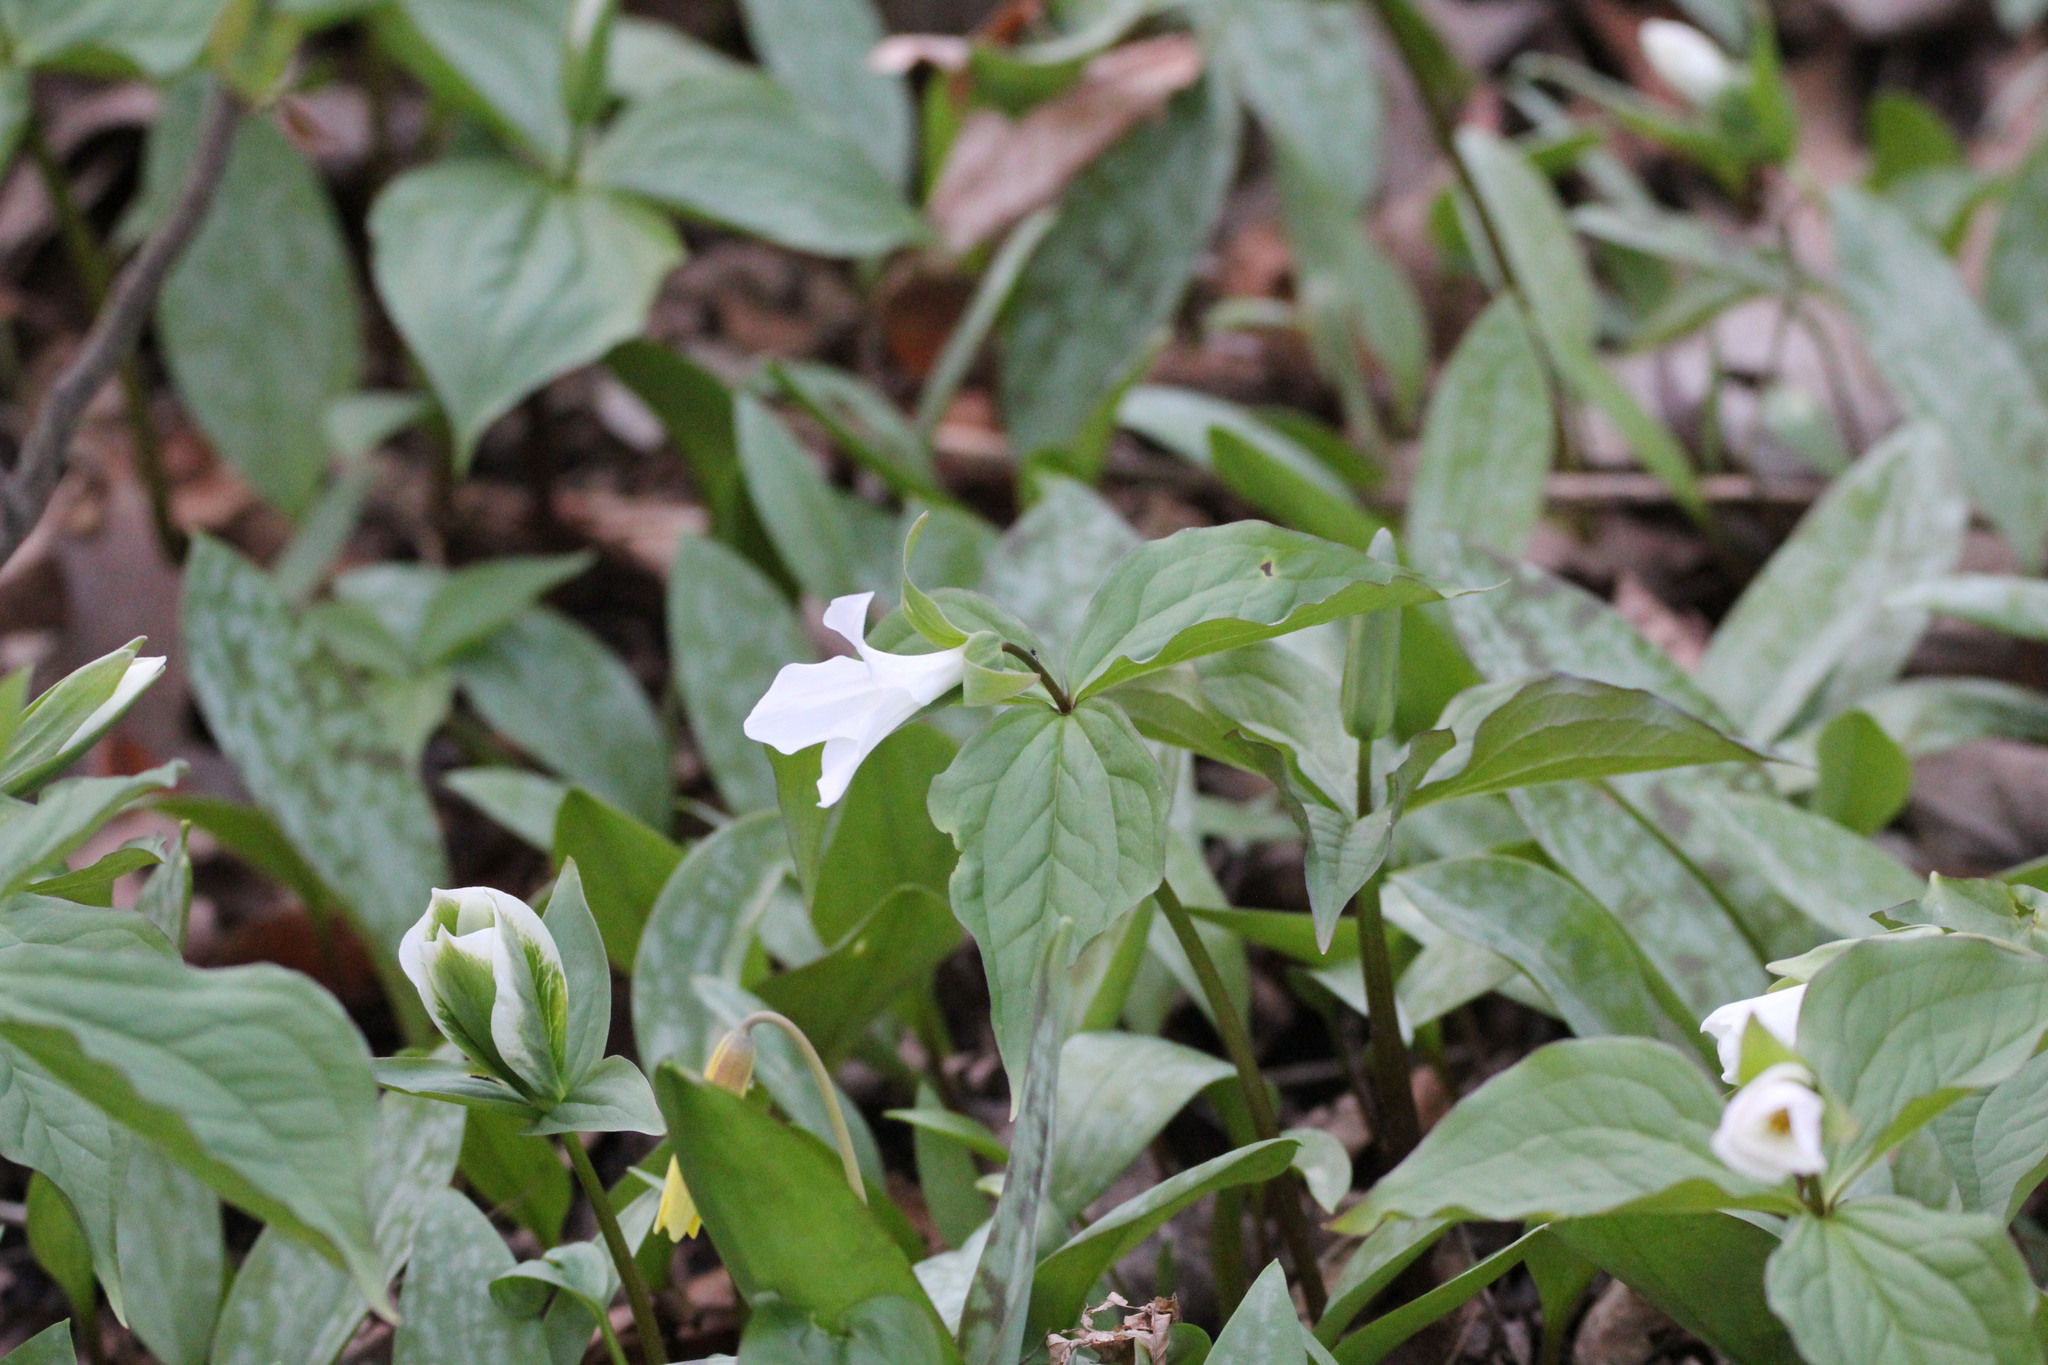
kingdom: Plantae
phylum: Tracheophyta
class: Liliopsida
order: Liliales
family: Melanthiaceae
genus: Trillium
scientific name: Trillium grandiflorum
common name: Great white trillium
